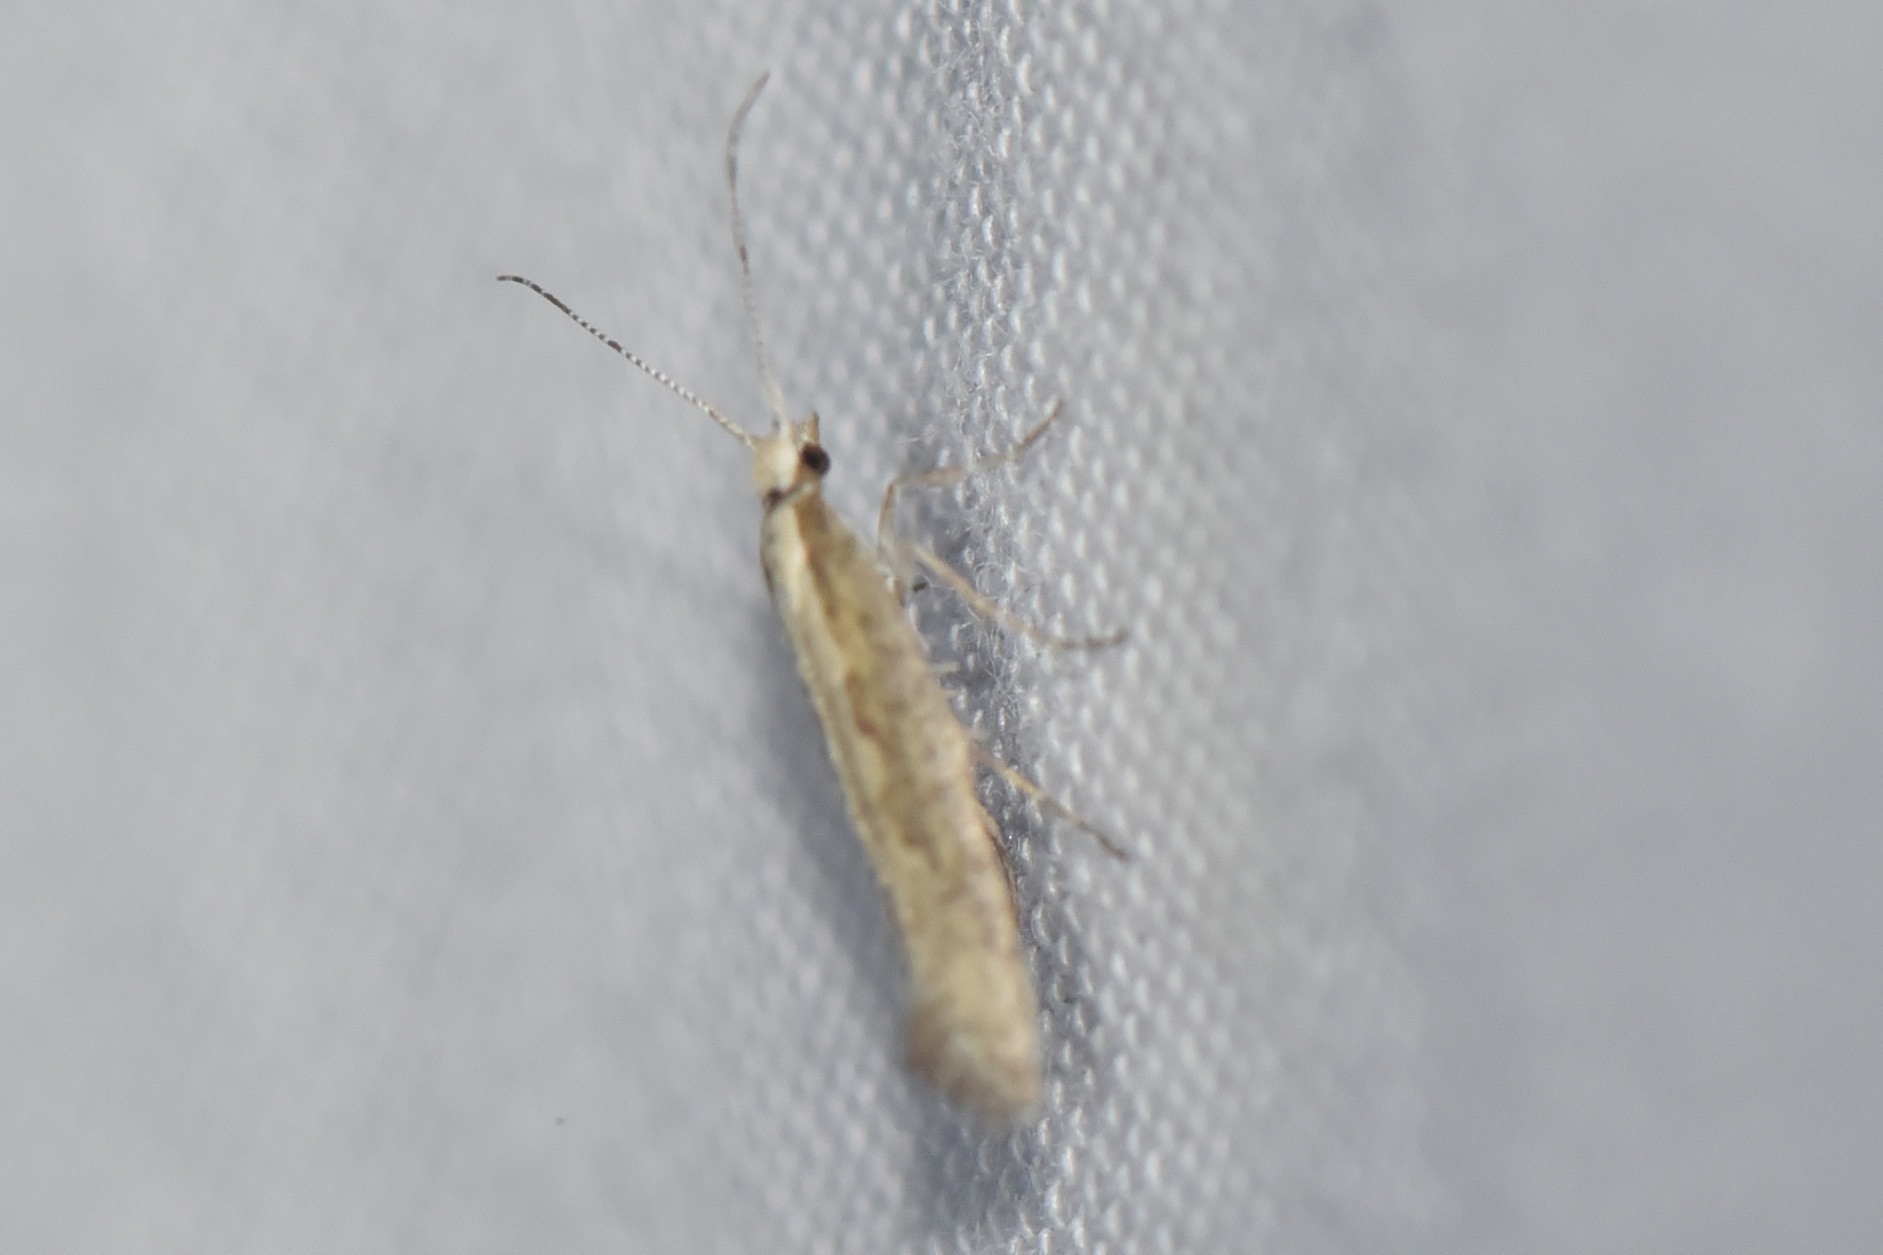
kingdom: Animalia
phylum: Arthropoda
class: Insecta
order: Lepidoptera
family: Plutellidae
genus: Plutella
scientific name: Plutella xylostella
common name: Diamond-back moth
